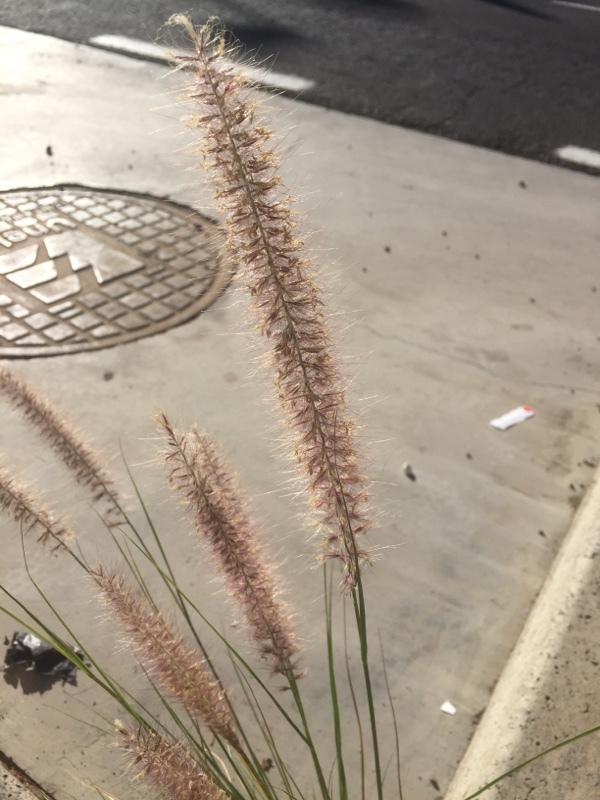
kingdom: Plantae
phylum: Tracheophyta
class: Liliopsida
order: Poales
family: Poaceae
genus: Cenchrus
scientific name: Cenchrus setaceus
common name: Crimson fountaingrass
